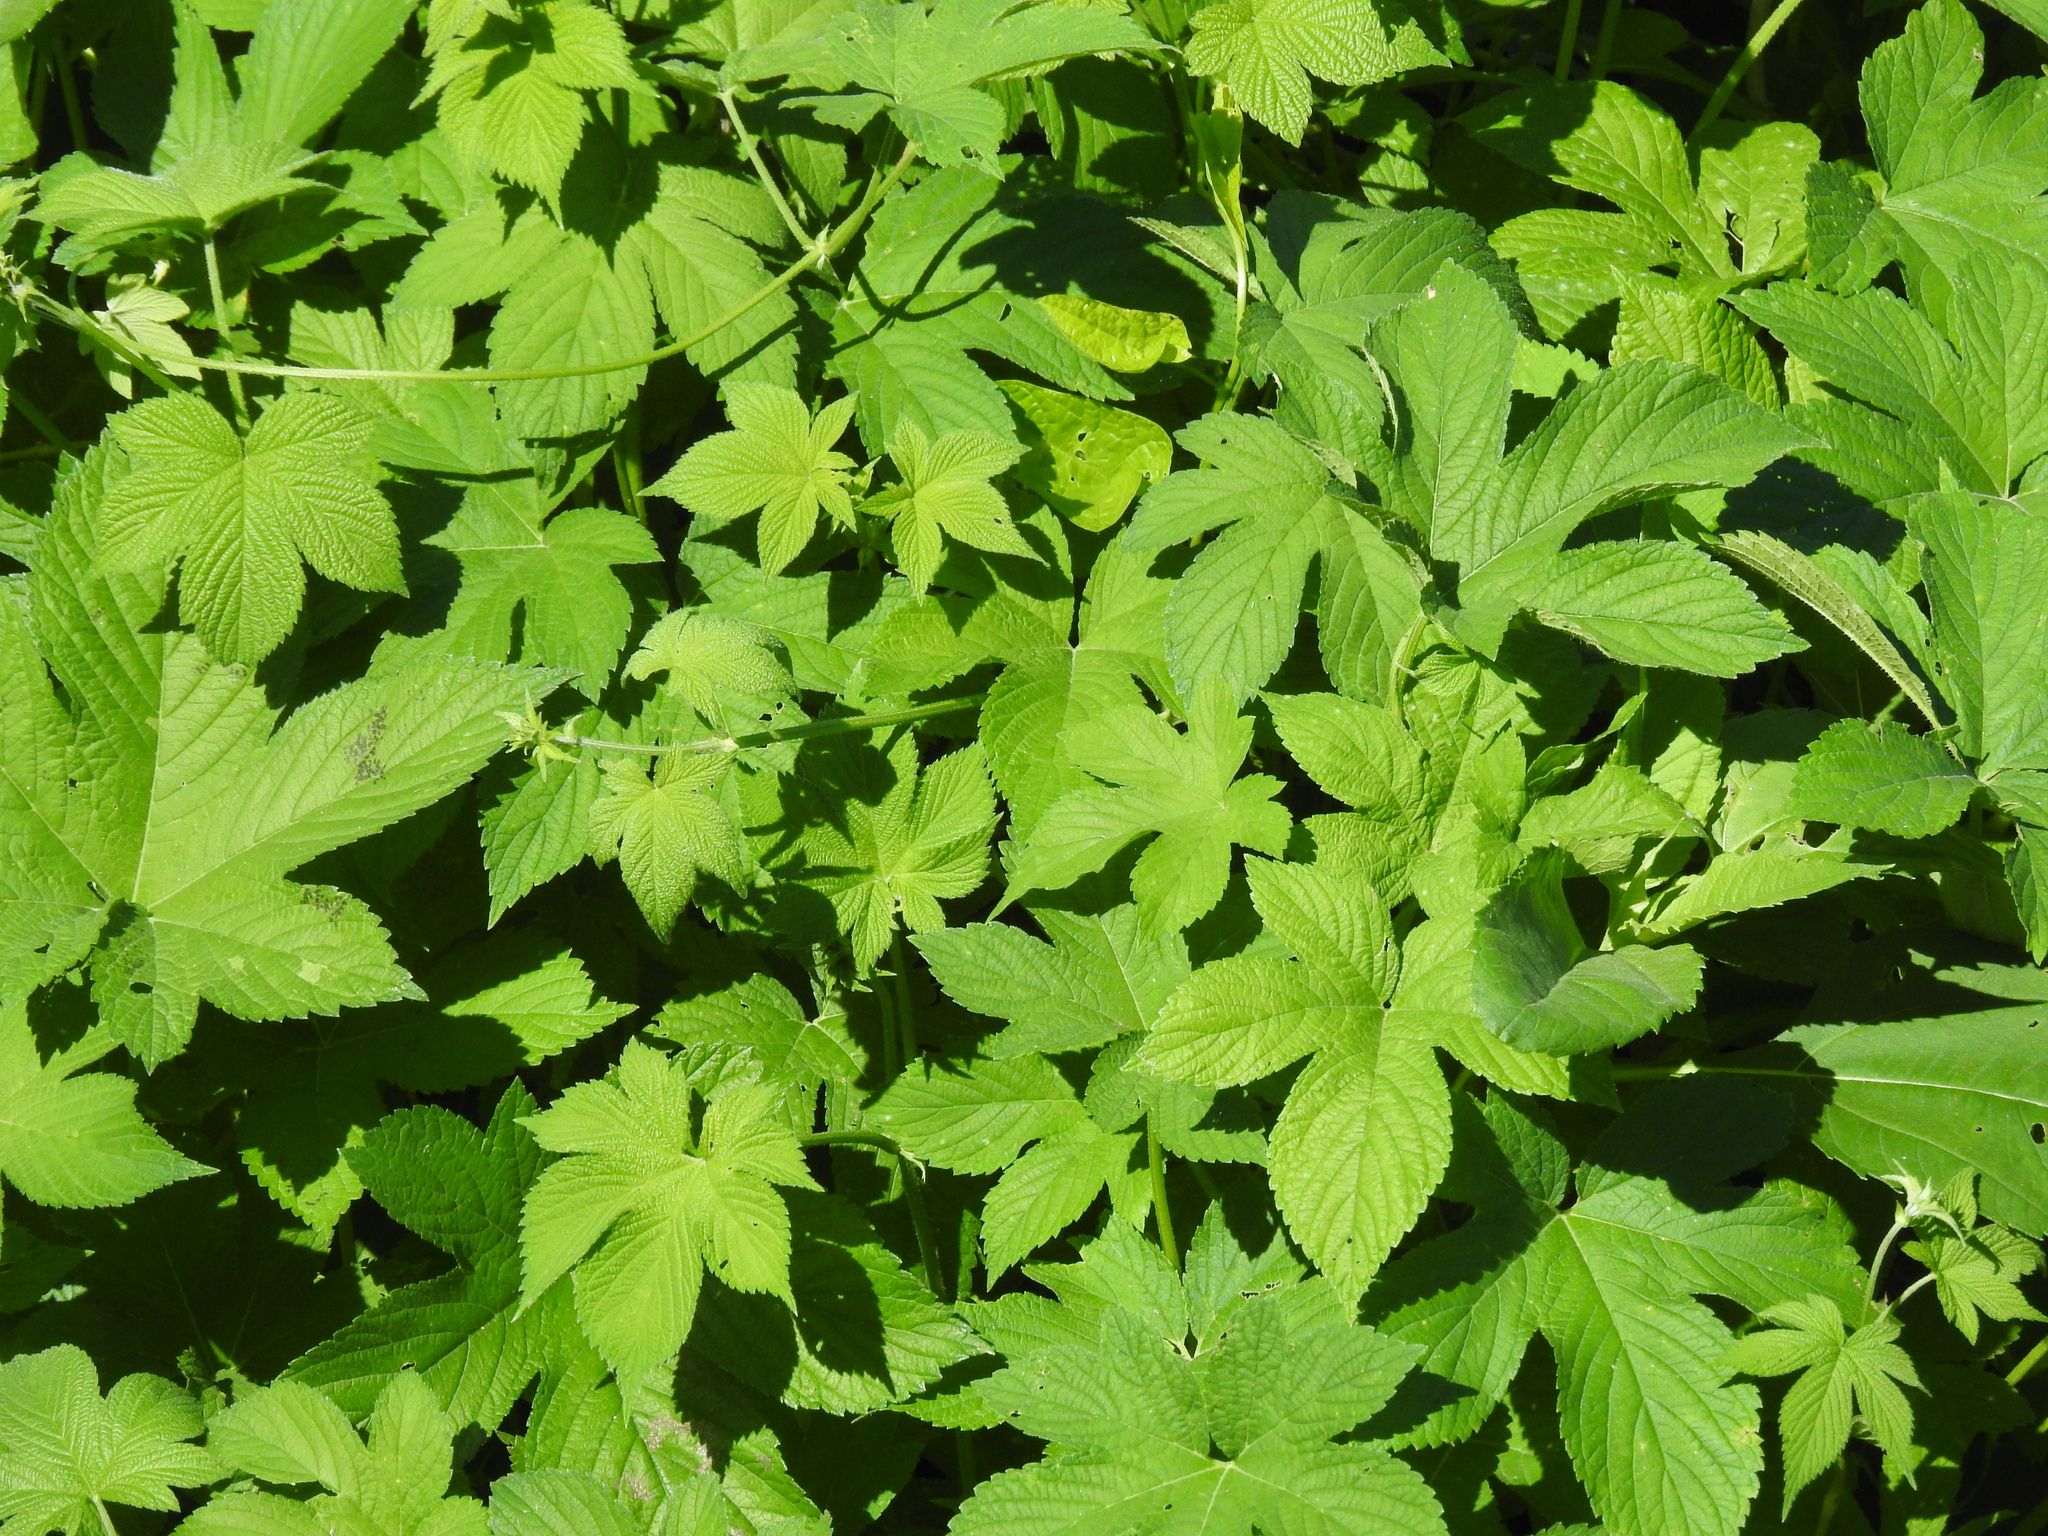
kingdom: Plantae
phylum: Tracheophyta
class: Magnoliopsida
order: Rosales
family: Cannabaceae
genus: Humulus
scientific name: Humulus scandens
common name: Japanese hop
